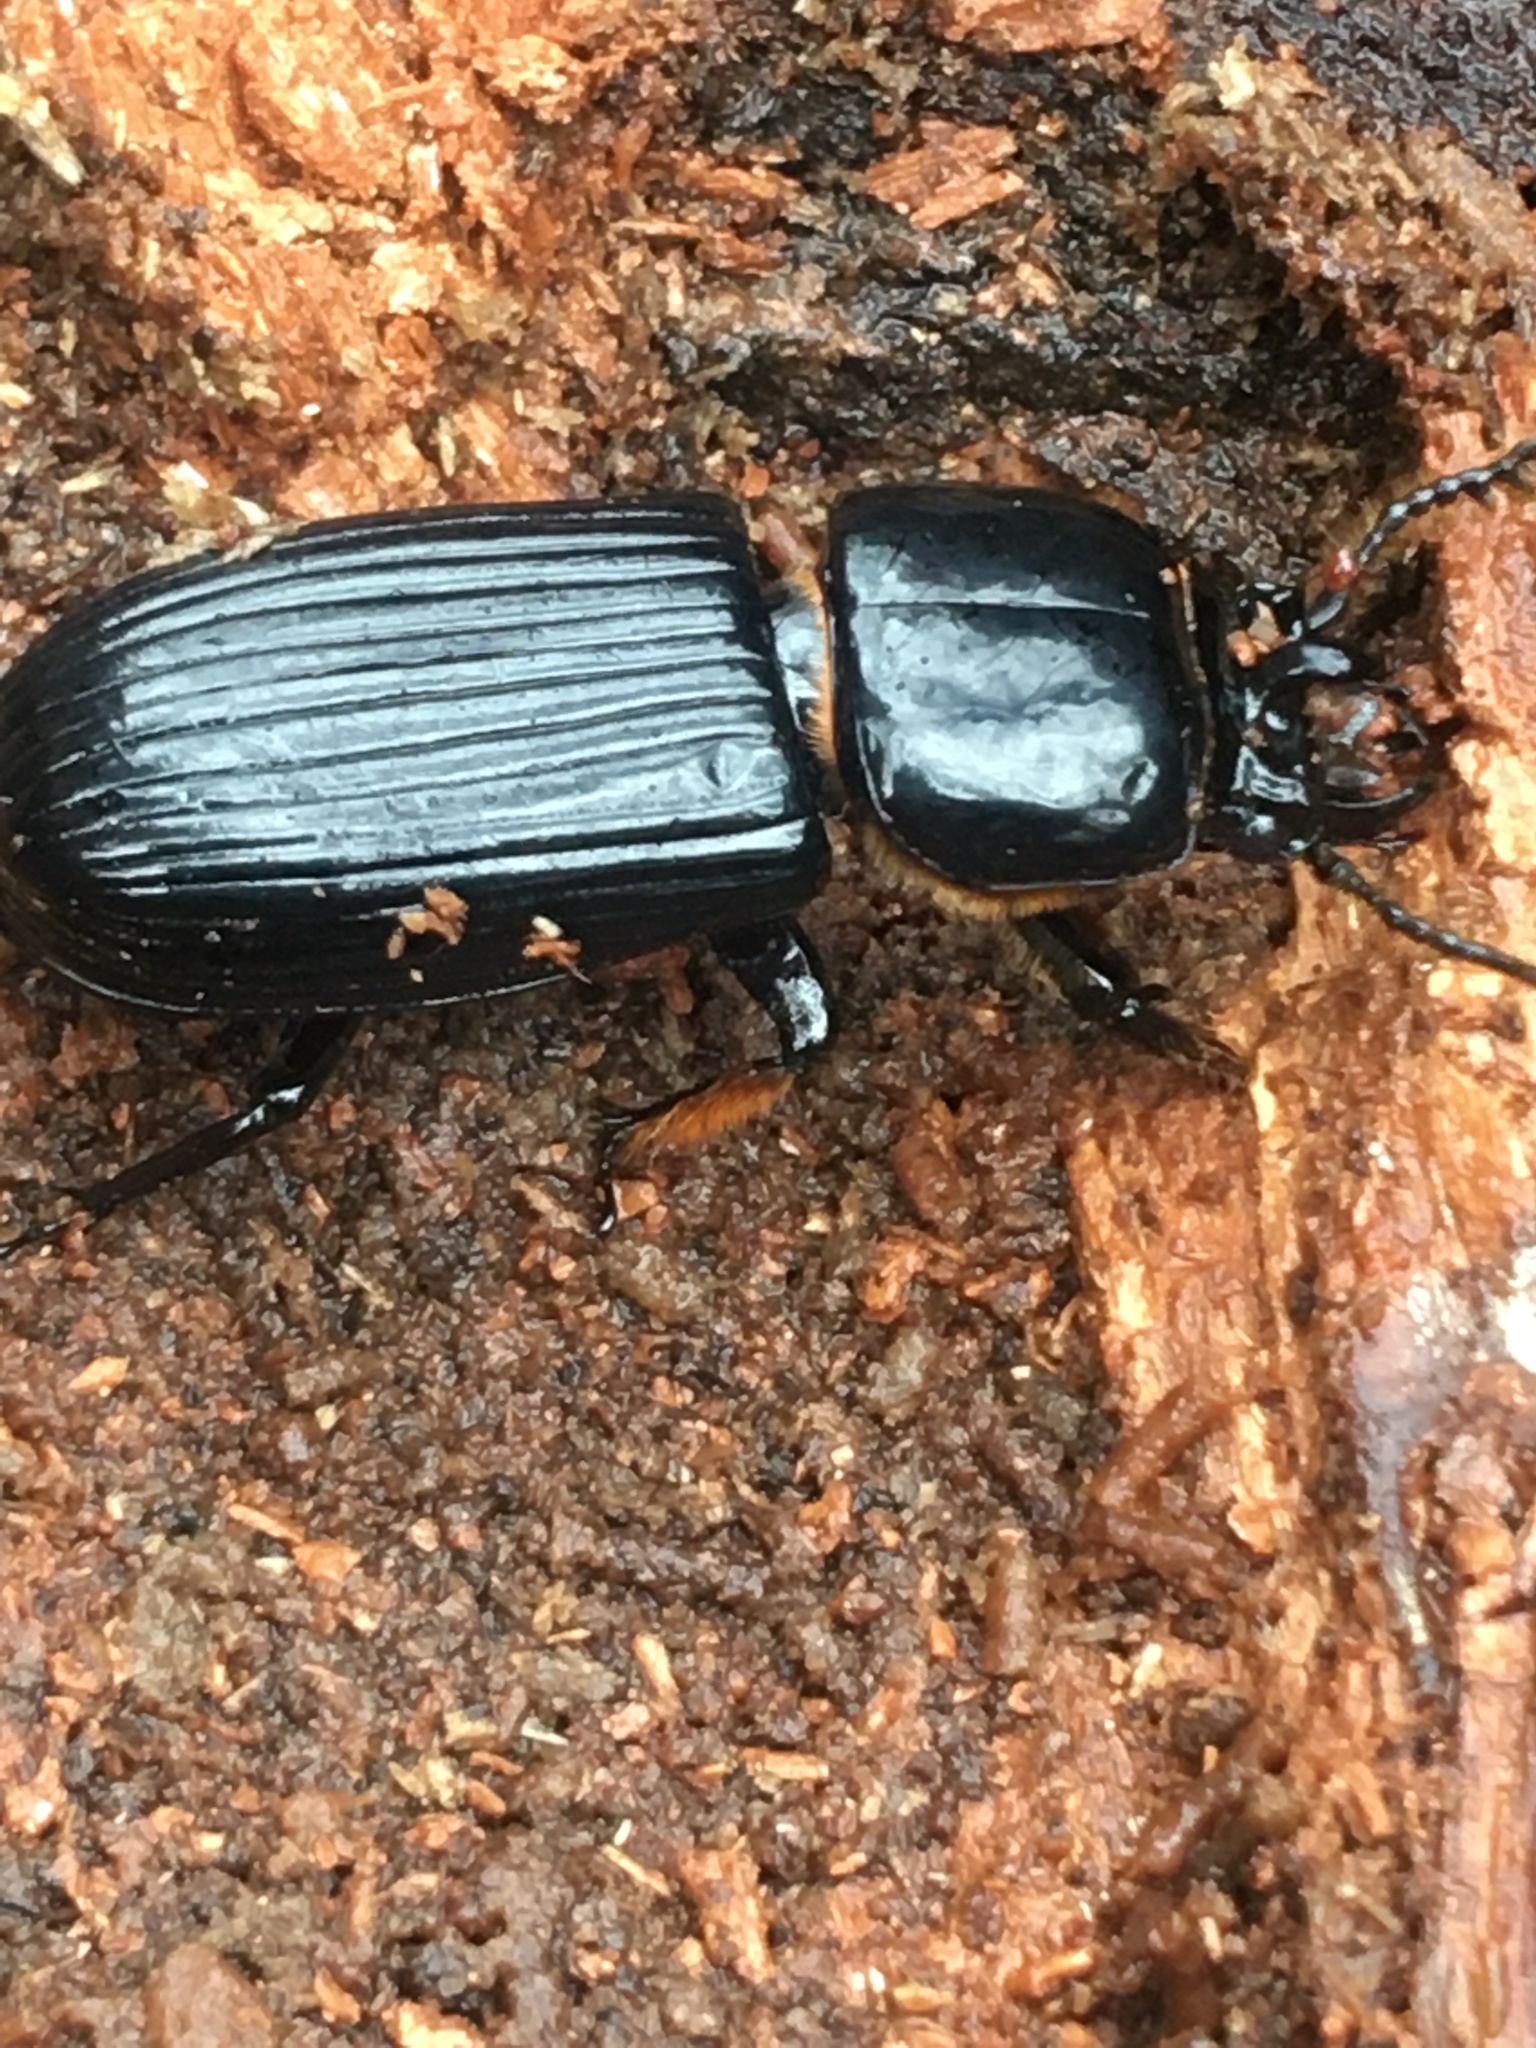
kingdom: Animalia
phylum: Arthropoda
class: Insecta
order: Coleoptera
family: Passalidae
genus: Odontotaenius
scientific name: Odontotaenius disjunctus
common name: Patent leather beetle
